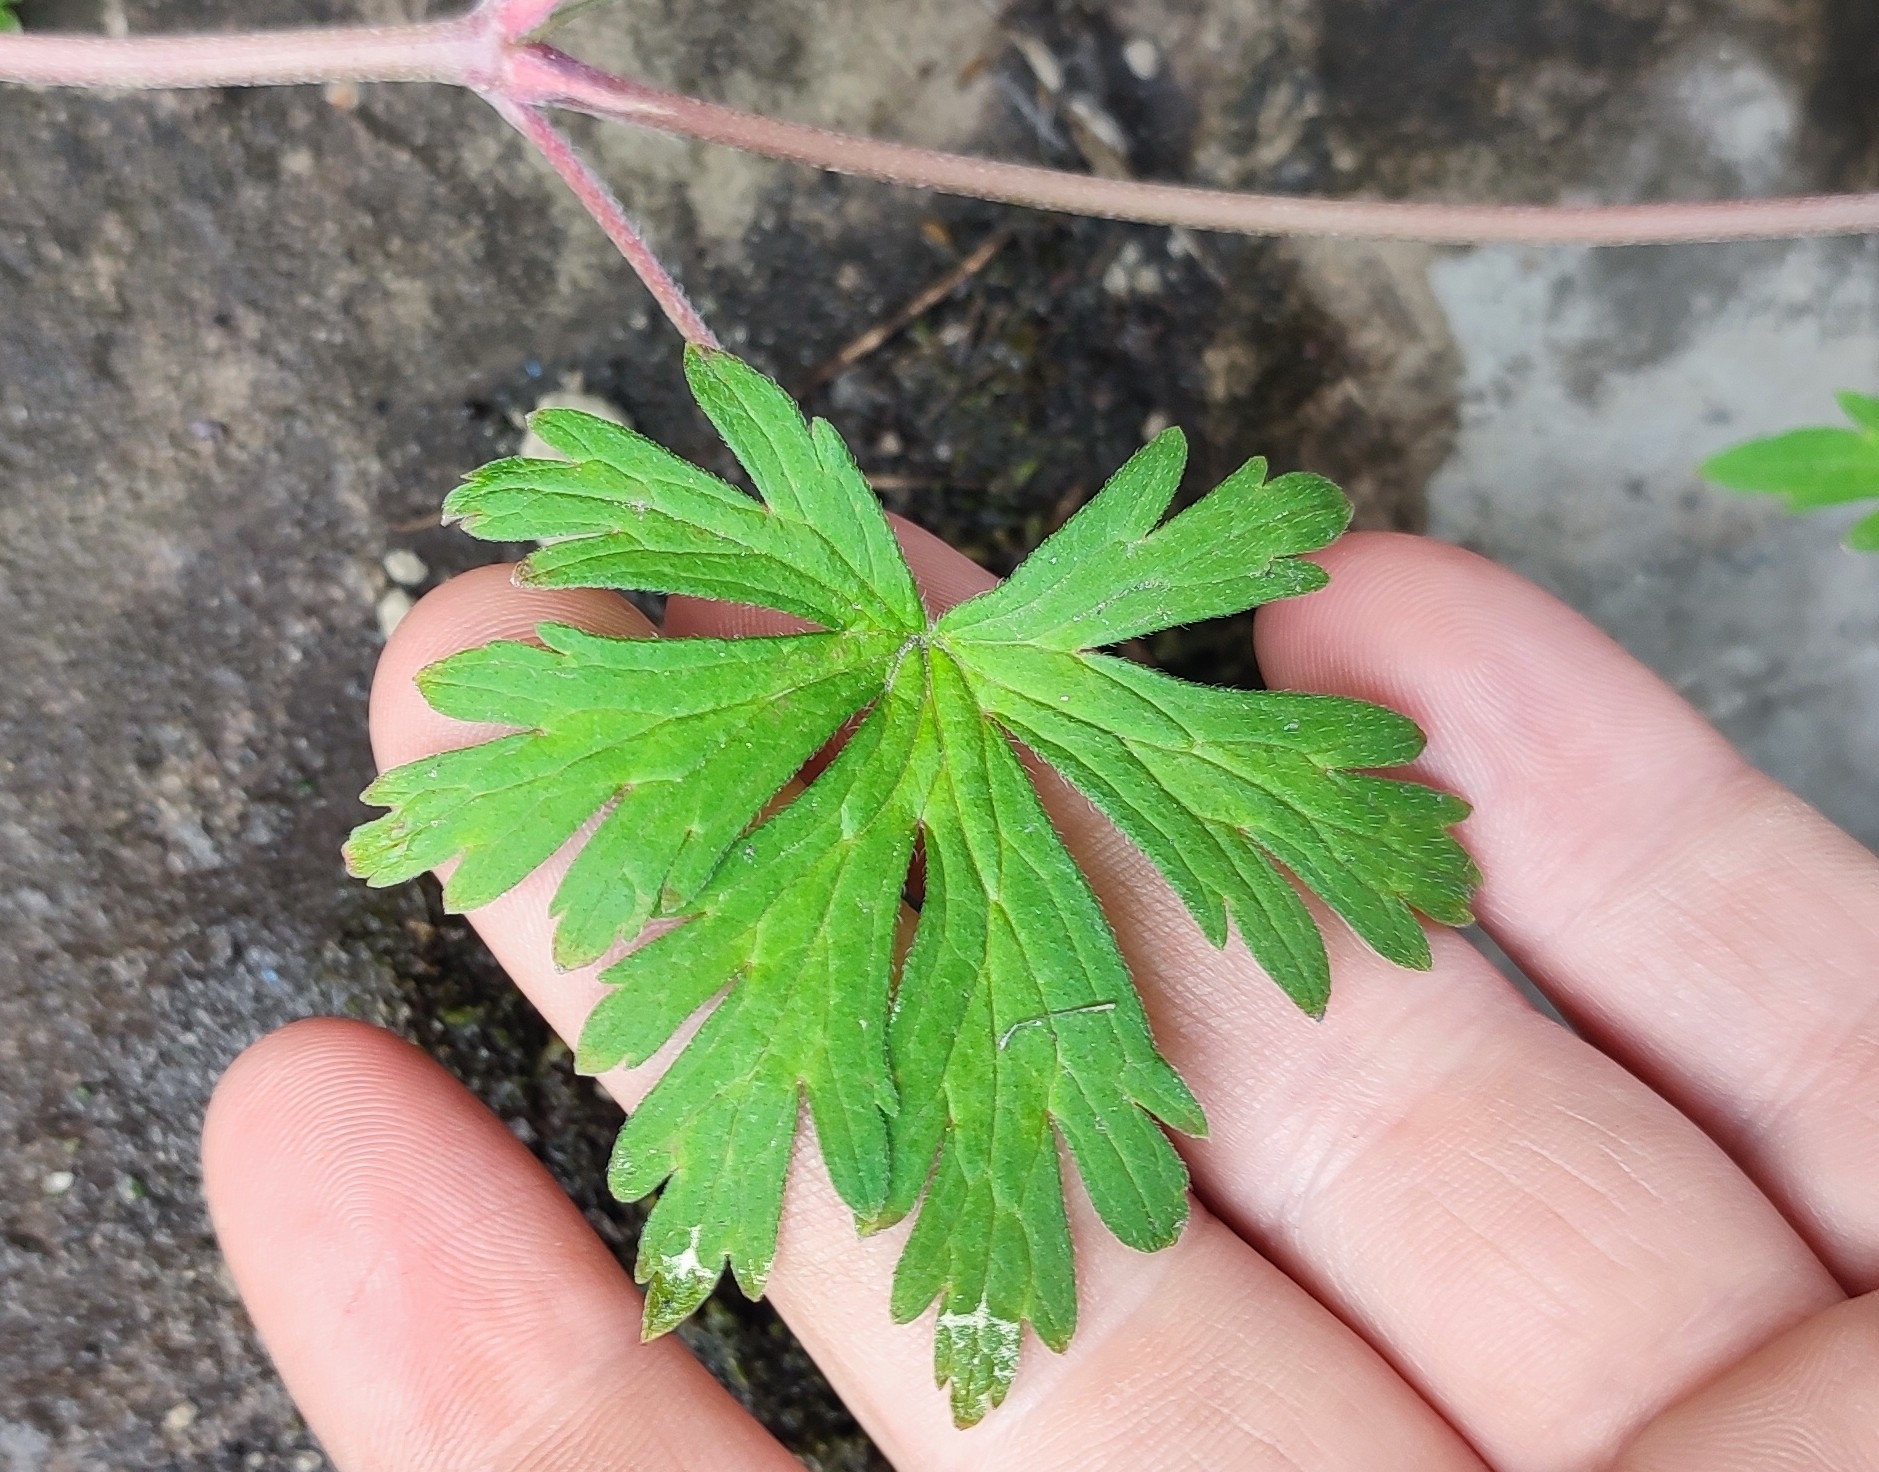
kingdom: Plantae
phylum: Tracheophyta
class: Magnoliopsida
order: Geraniales
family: Geraniaceae
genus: Geranium
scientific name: Geranium sibiricum
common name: Siberian crane's-bill
